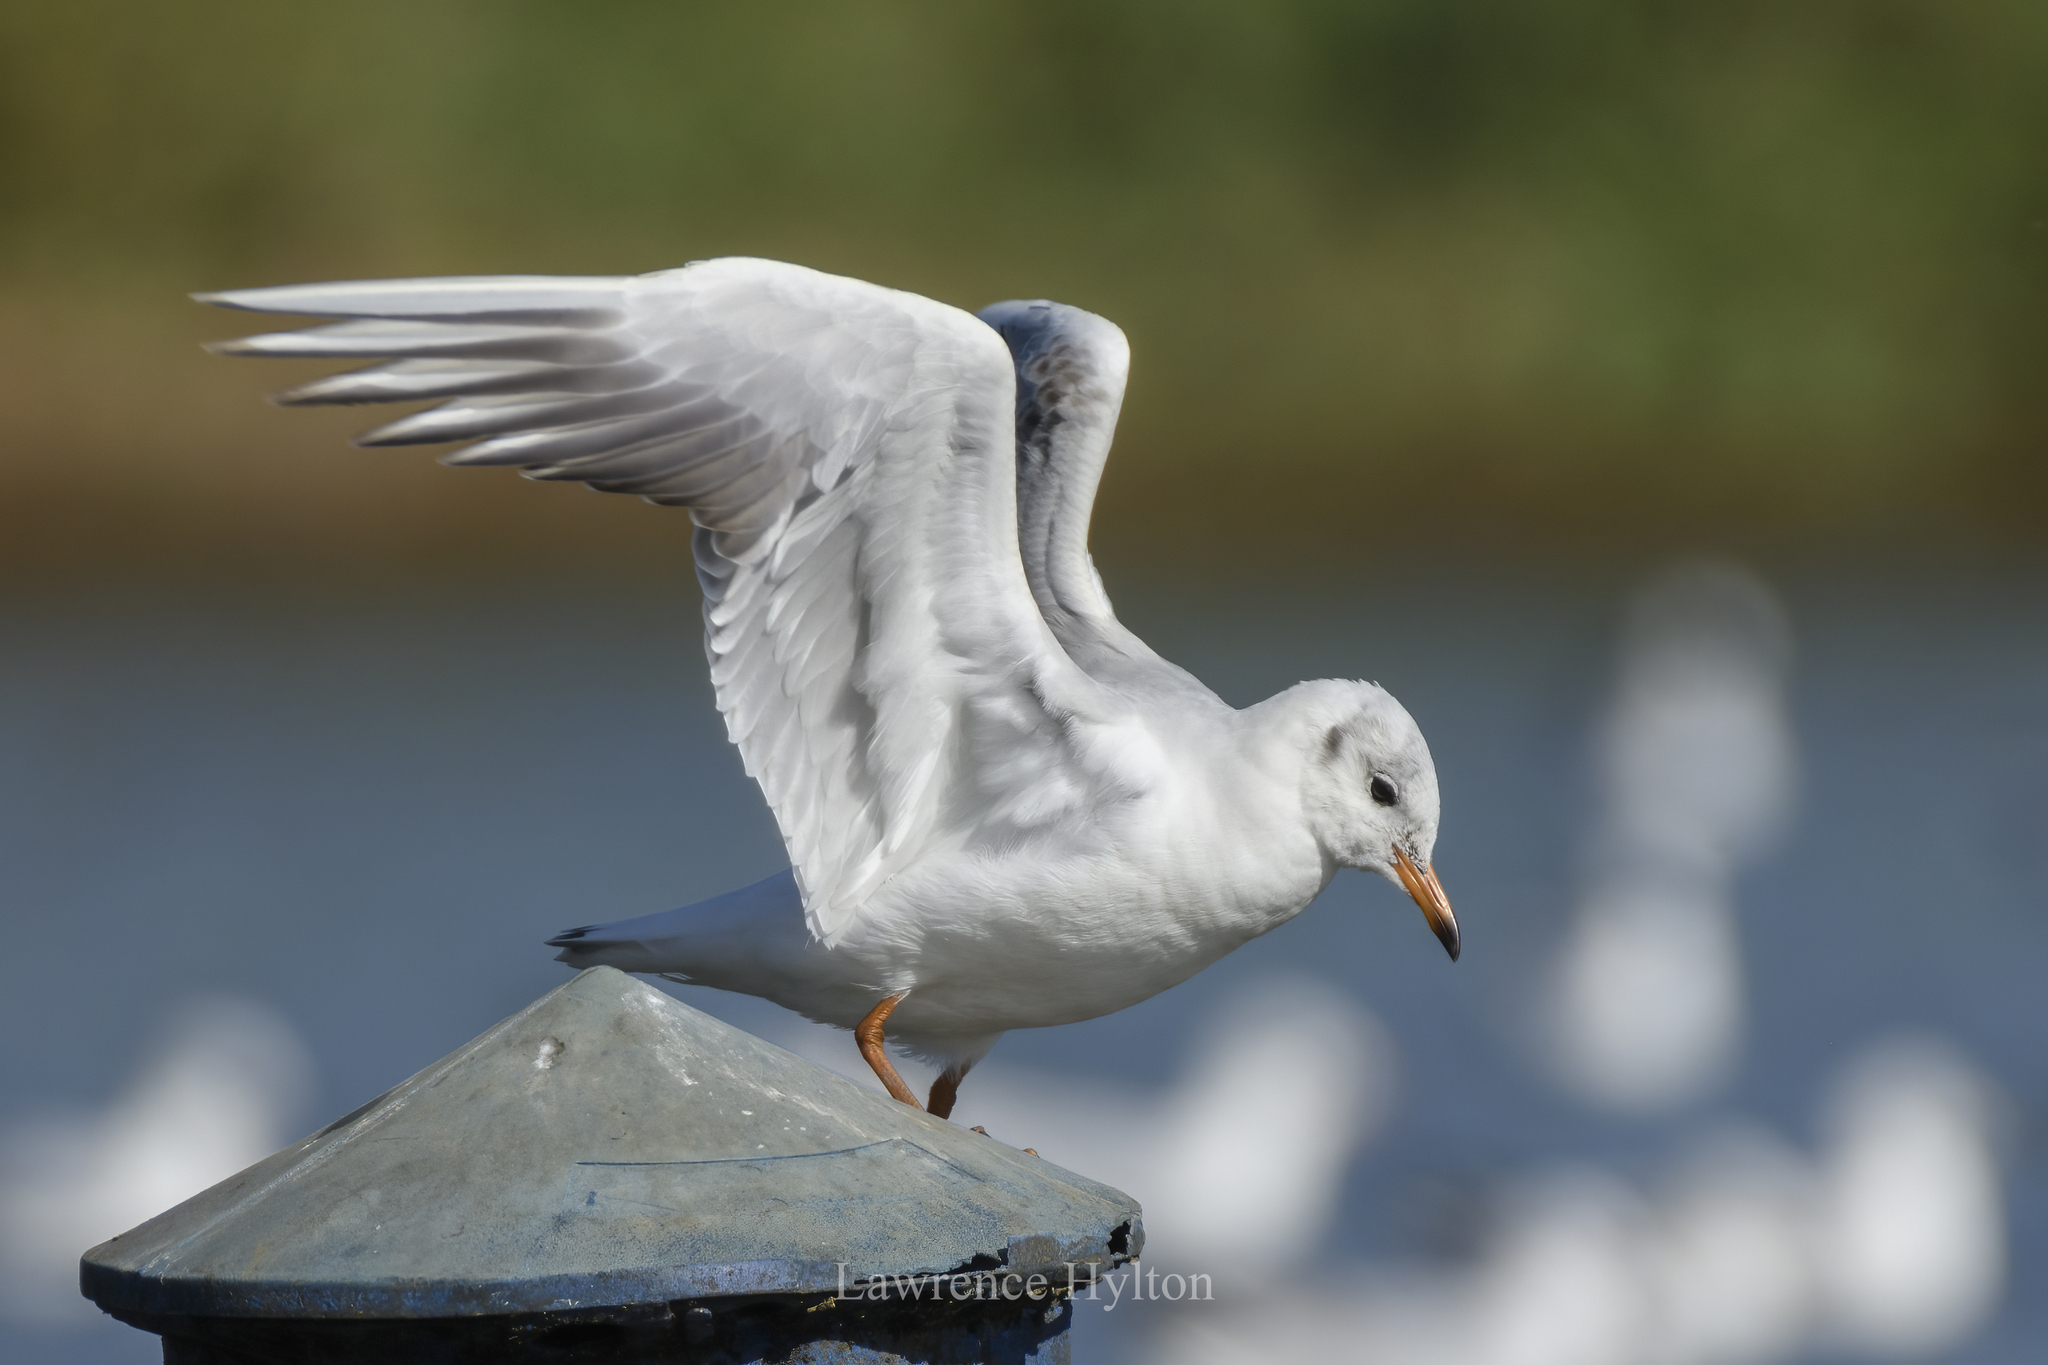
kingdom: Animalia
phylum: Chordata
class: Aves
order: Charadriiformes
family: Laridae
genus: Chroicocephalus
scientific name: Chroicocephalus ridibundus
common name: Black-headed gull
